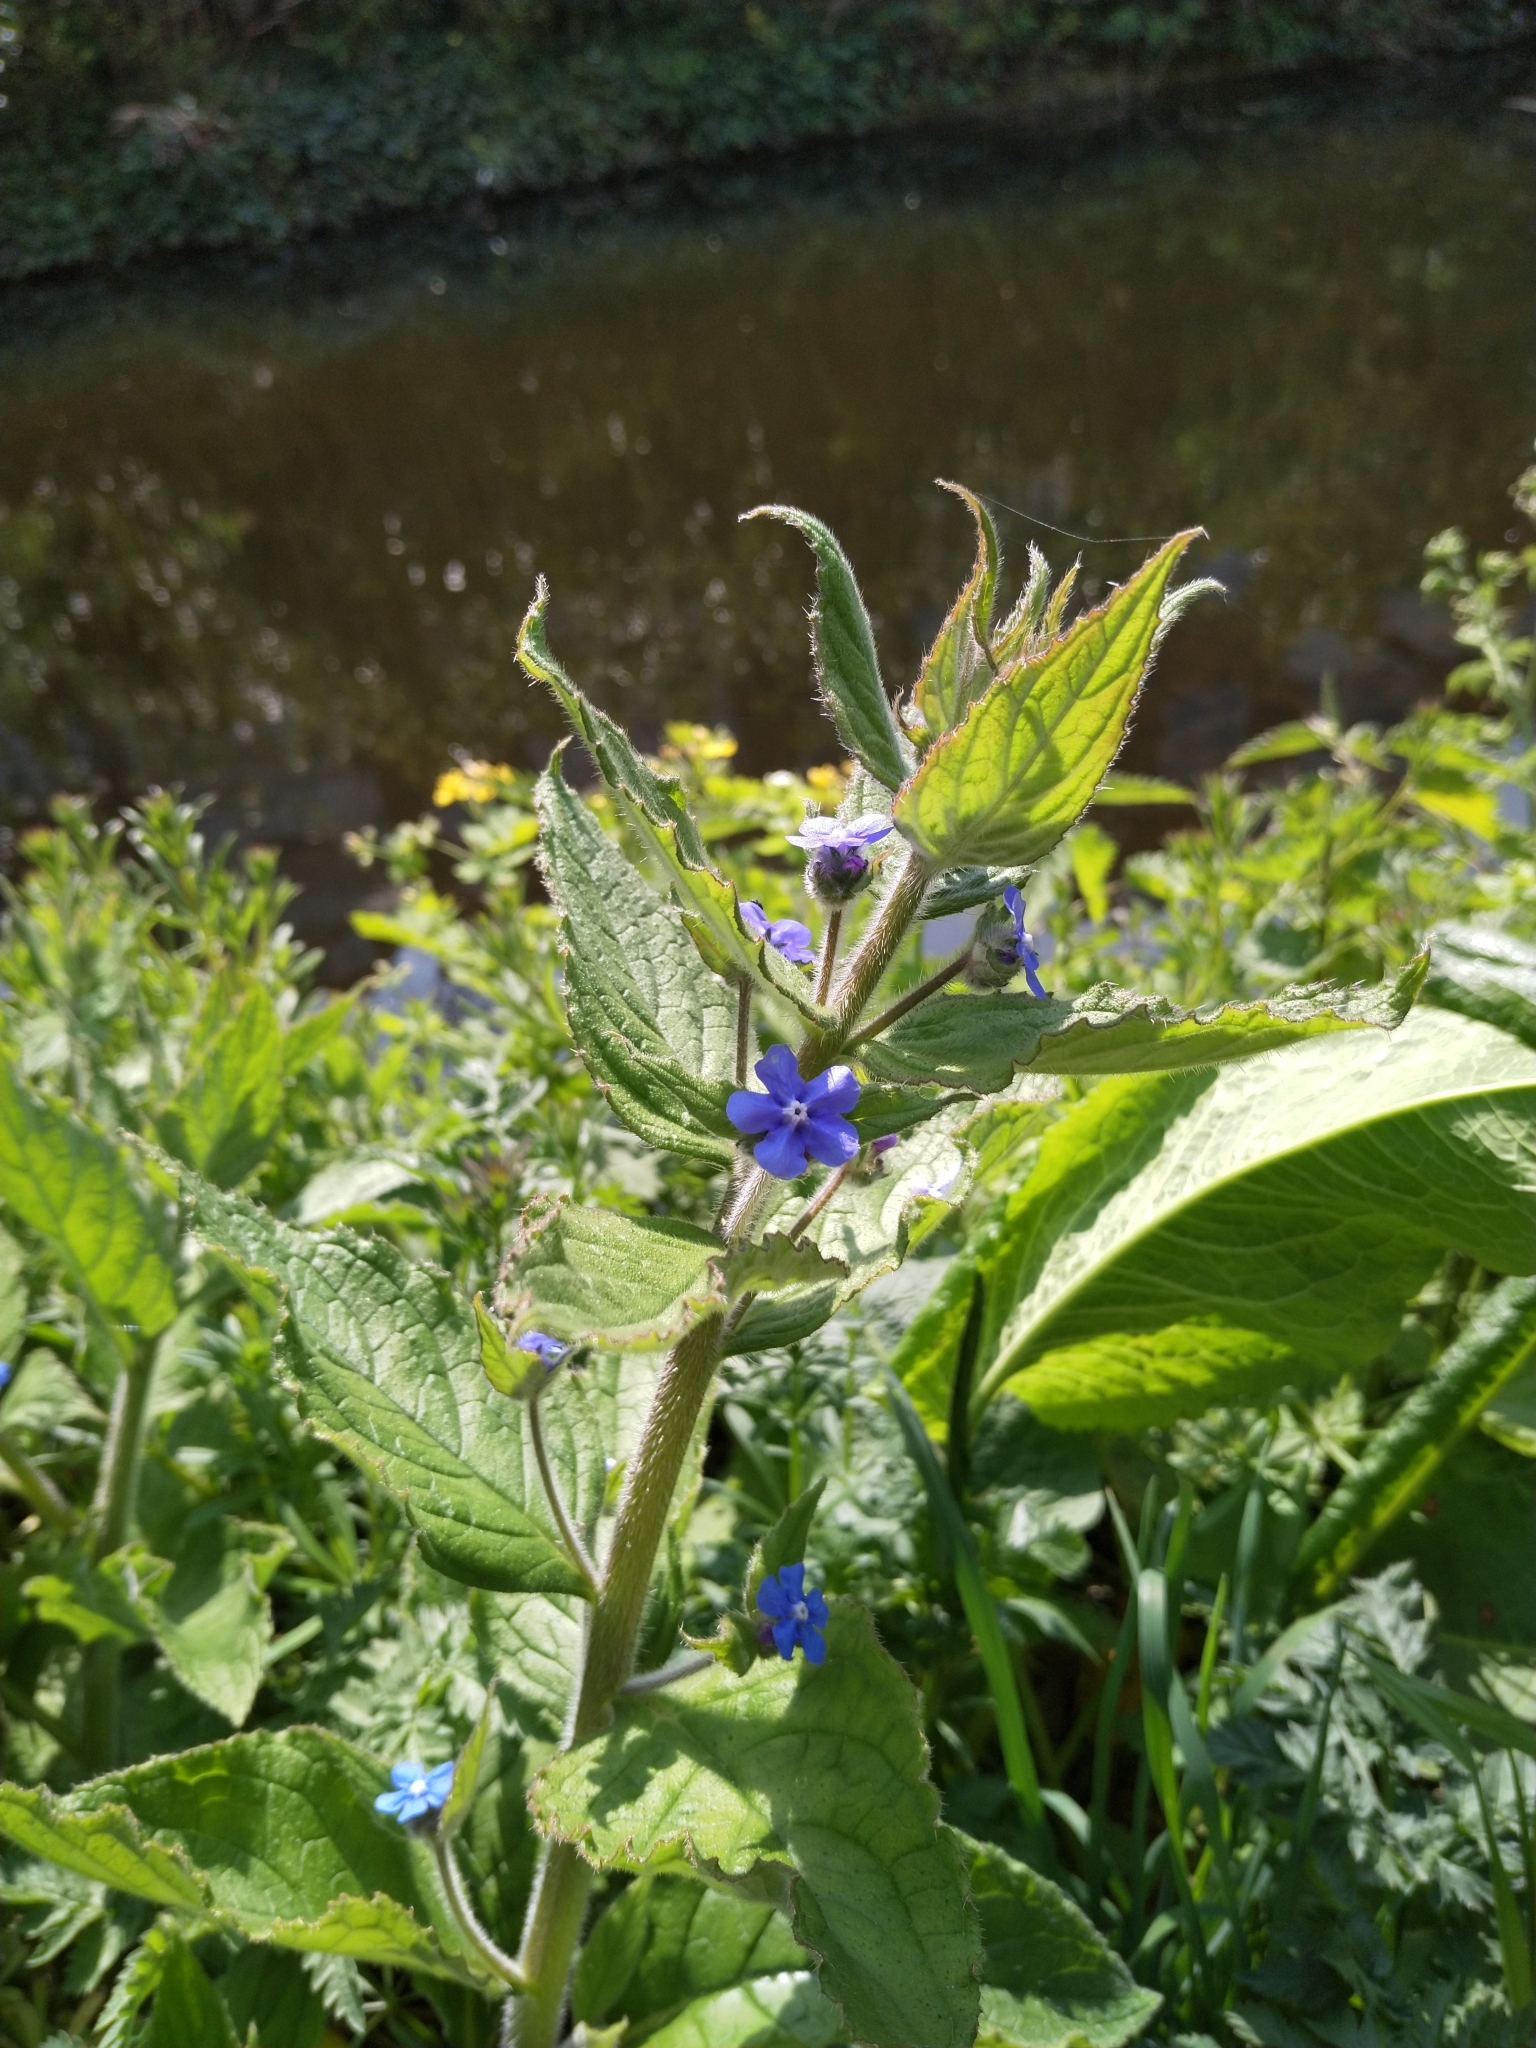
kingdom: Plantae
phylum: Tracheophyta
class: Magnoliopsida
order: Boraginales
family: Boraginaceae
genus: Pentaglottis
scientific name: Pentaglottis sempervirens
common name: Green alkanet
